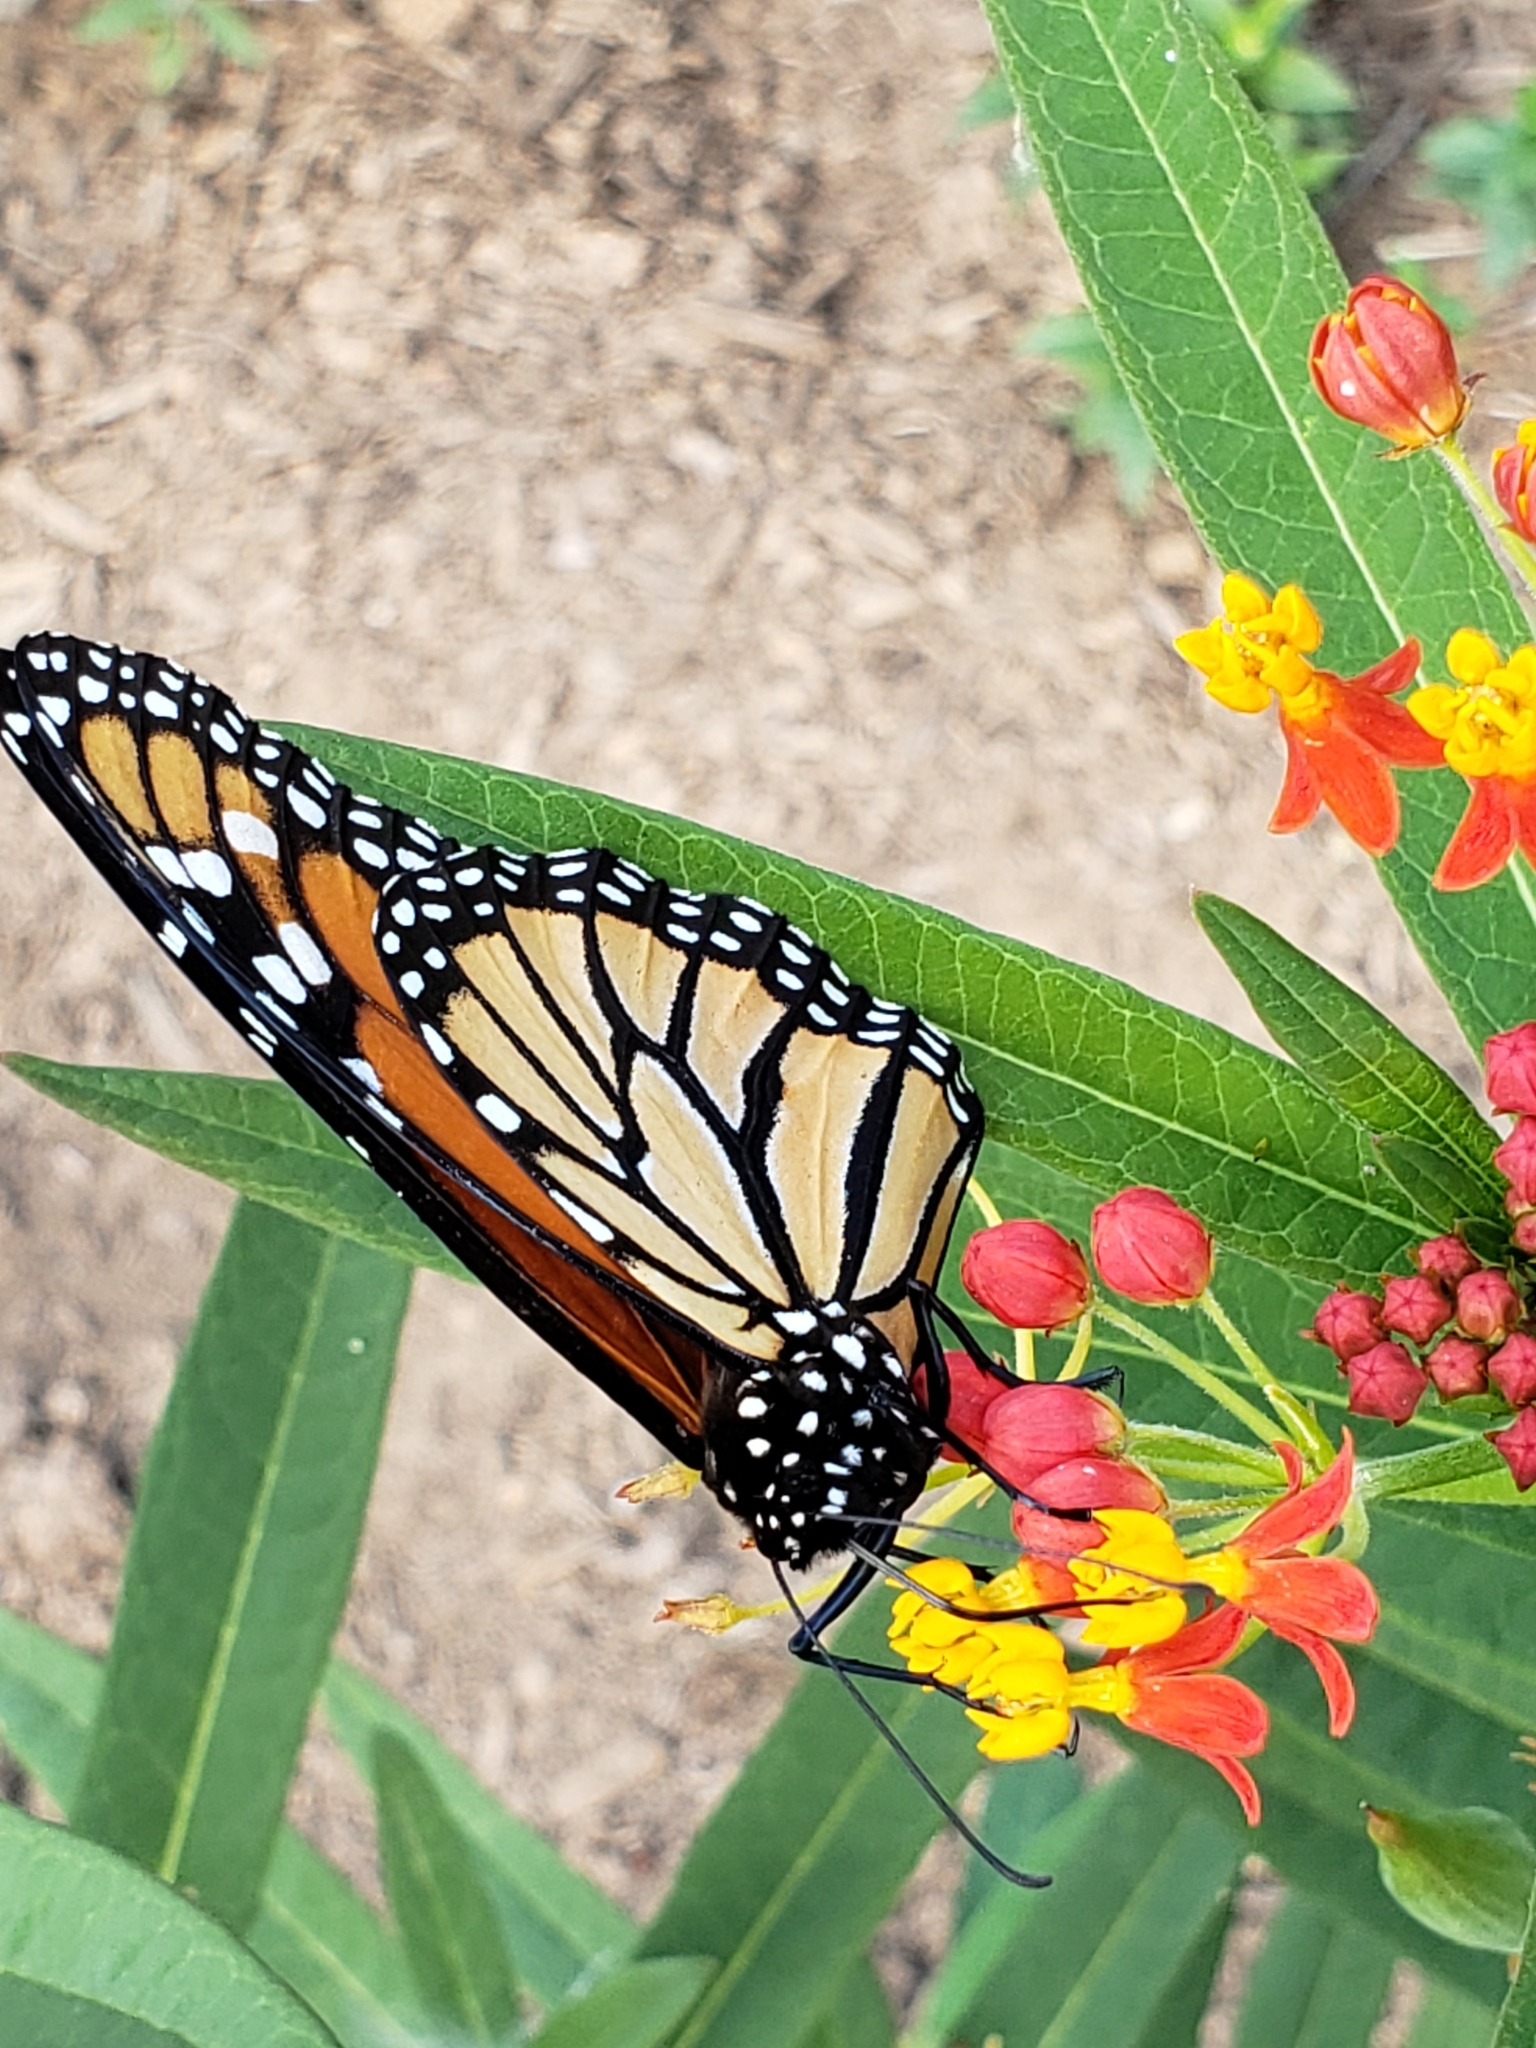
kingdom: Animalia
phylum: Arthropoda
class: Insecta
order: Lepidoptera
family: Nymphalidae
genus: Danaus
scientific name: Danaus plexippus
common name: Monarch
